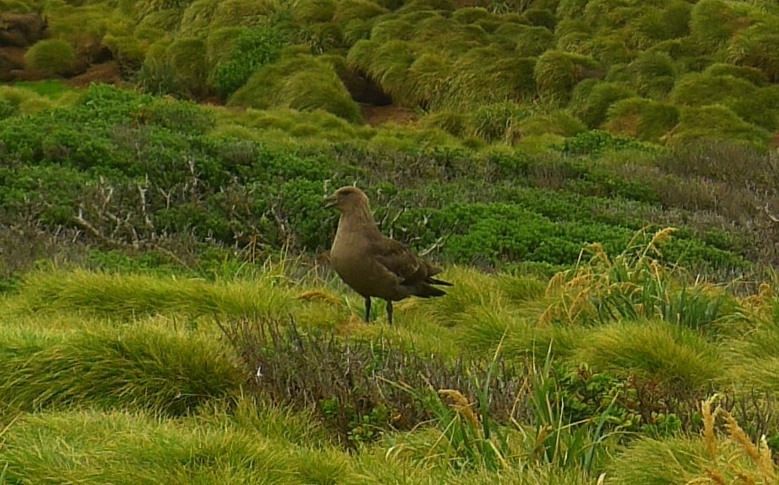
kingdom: Animalia
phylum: Chordata
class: Aves
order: Charadriiformes
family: Stercorariidae
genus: Stercorarius
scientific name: Stercorarius antarcticus
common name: Brown skua
